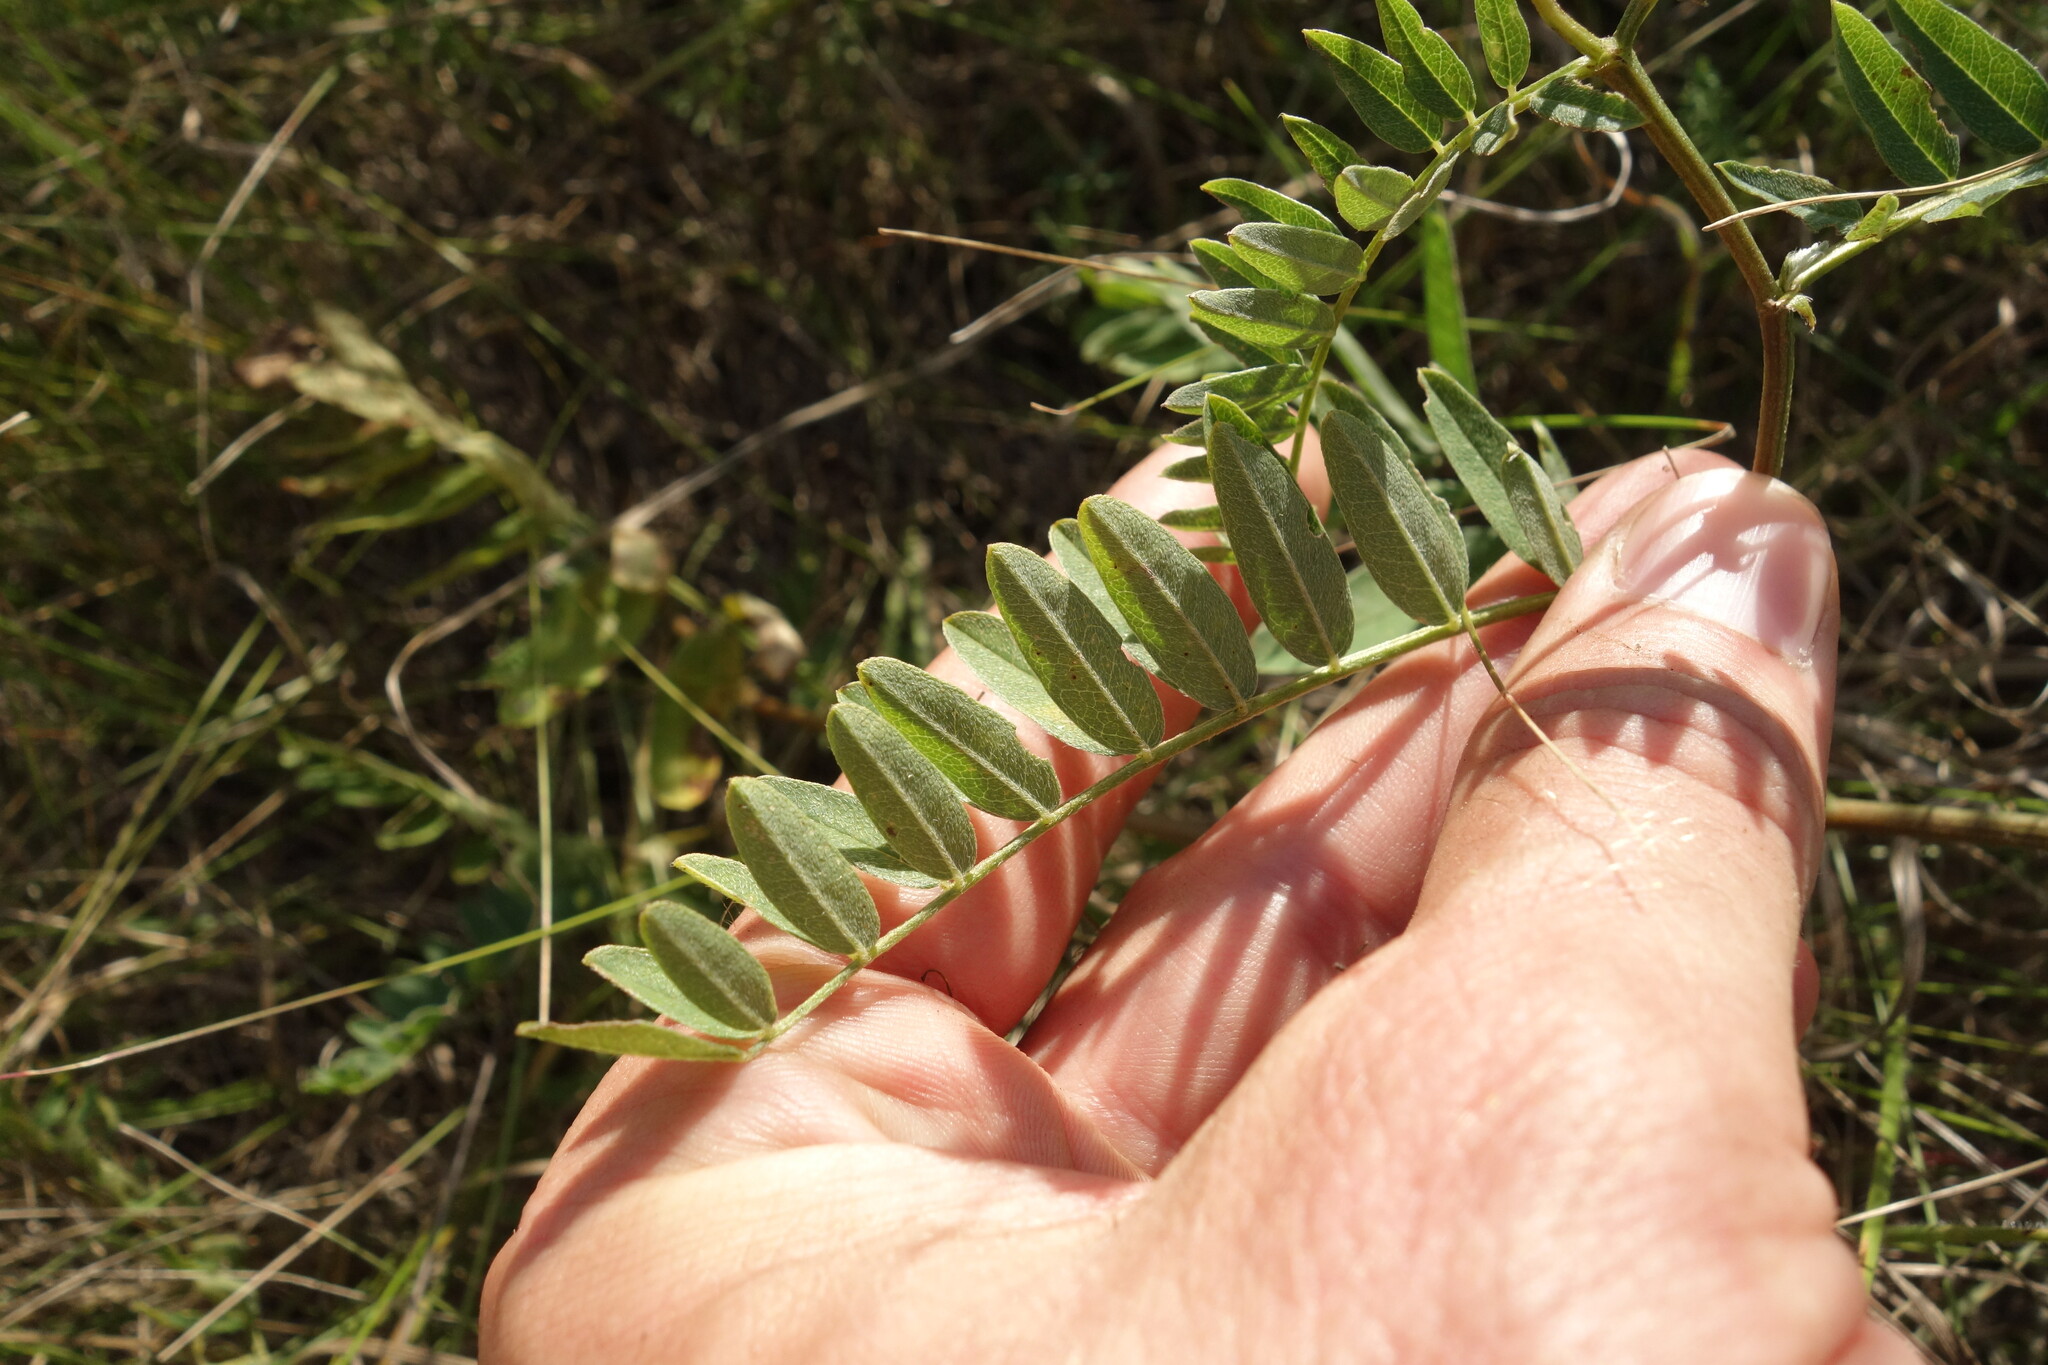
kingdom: Plantae
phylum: Tracheophyta
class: Magnoliopsida
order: Fabales
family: Fabaceae
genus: Astragalus
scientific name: Astragalus cicer
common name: Chick-pea milk-vetch
